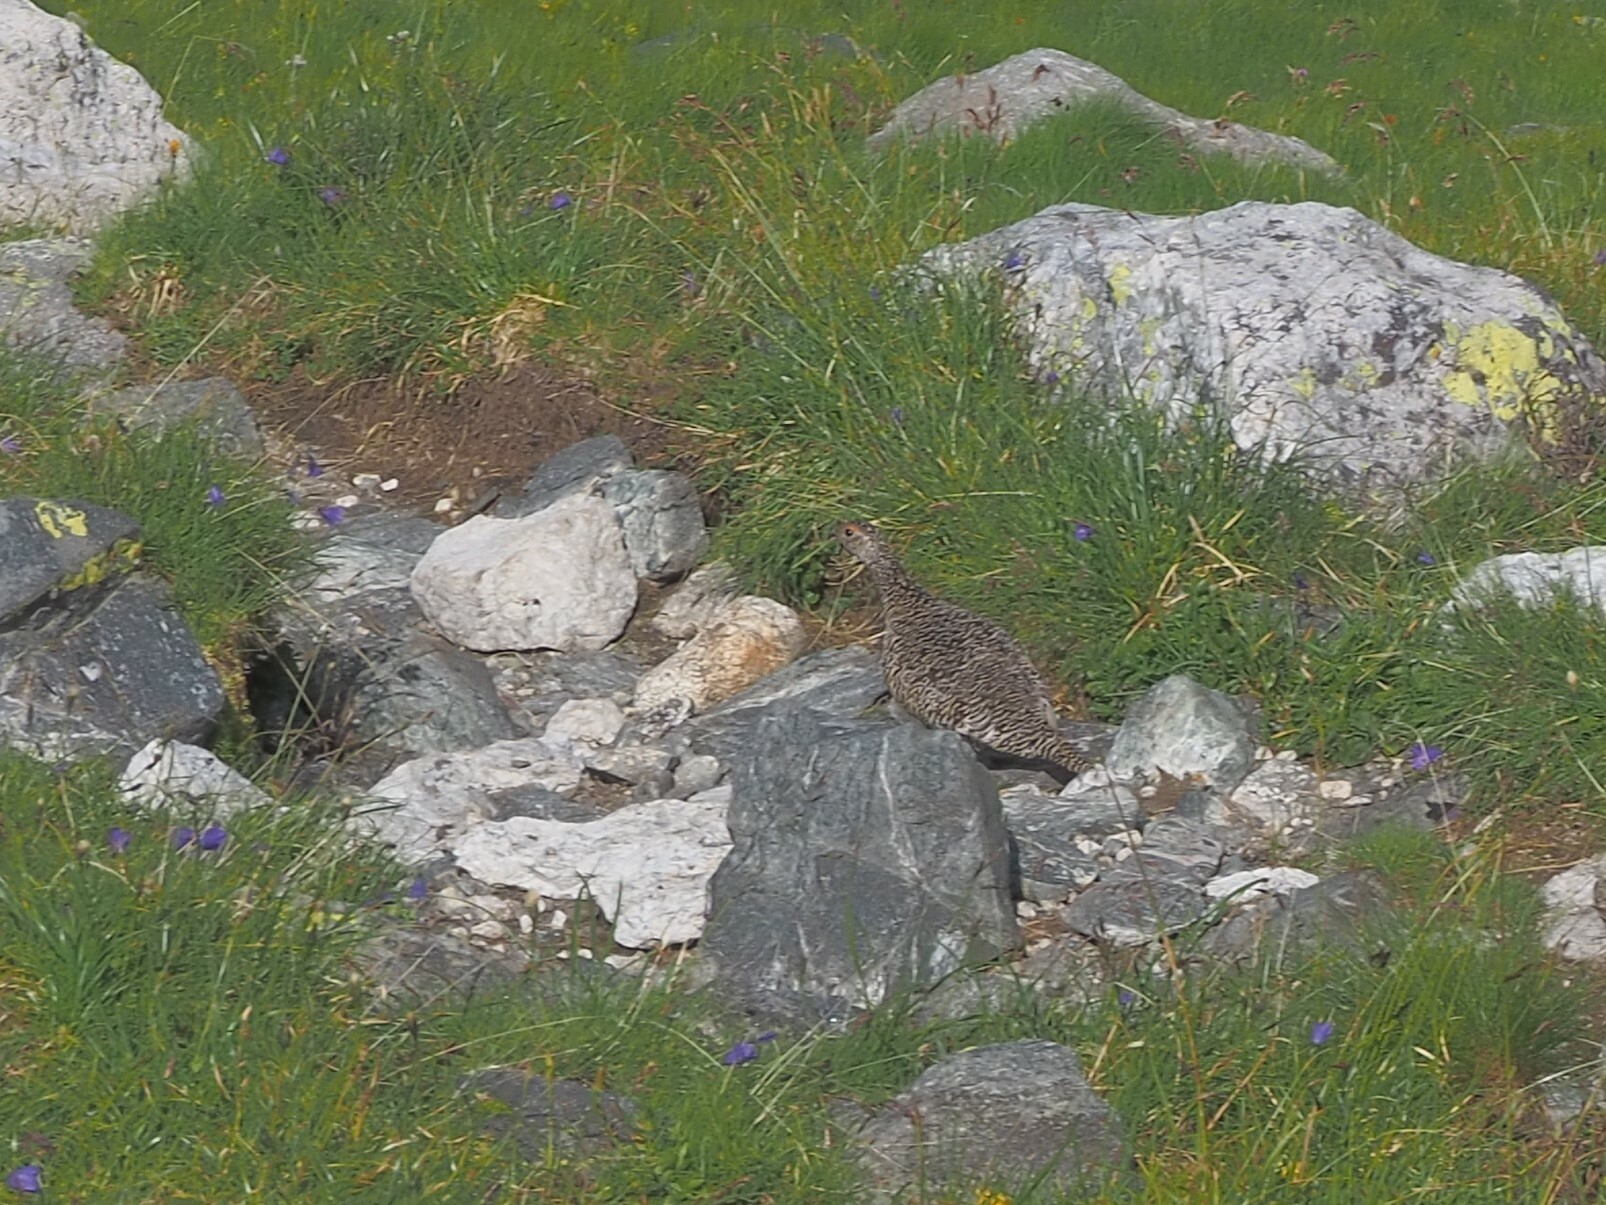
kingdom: Animalia
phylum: Chordata
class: Aves
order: Galliformes
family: Phasianidae
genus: Lagopus
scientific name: Lagopus muta
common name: Rock ptarmigan
